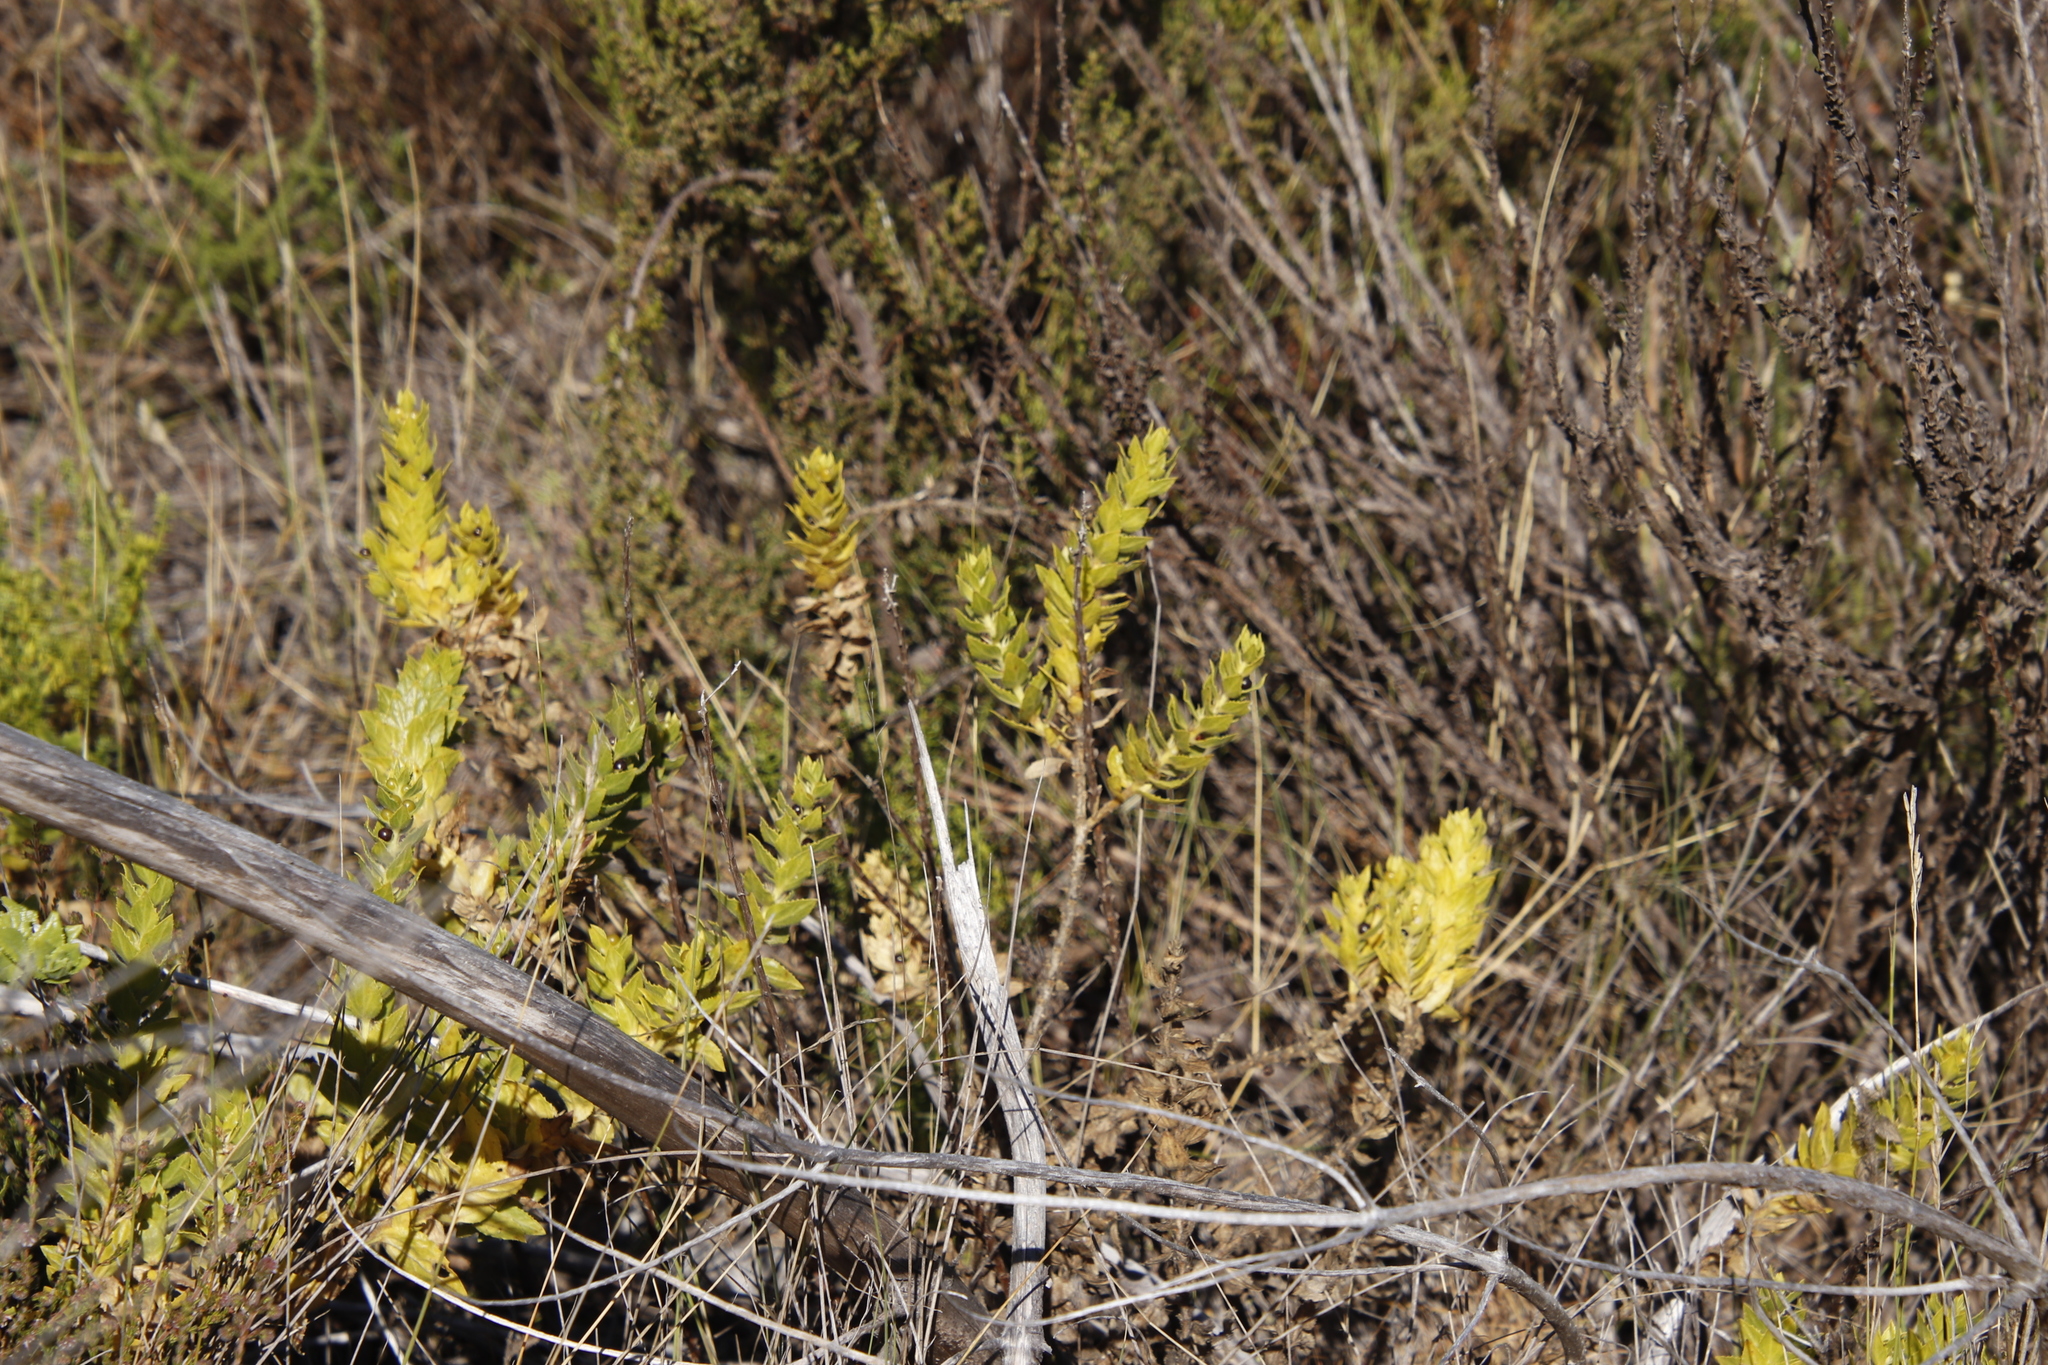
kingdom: Plantae
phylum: Tracheophyta
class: Magnoliopsida
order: Lamiales
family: Scrophulariaceae
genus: Oftia
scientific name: Oftia africana
